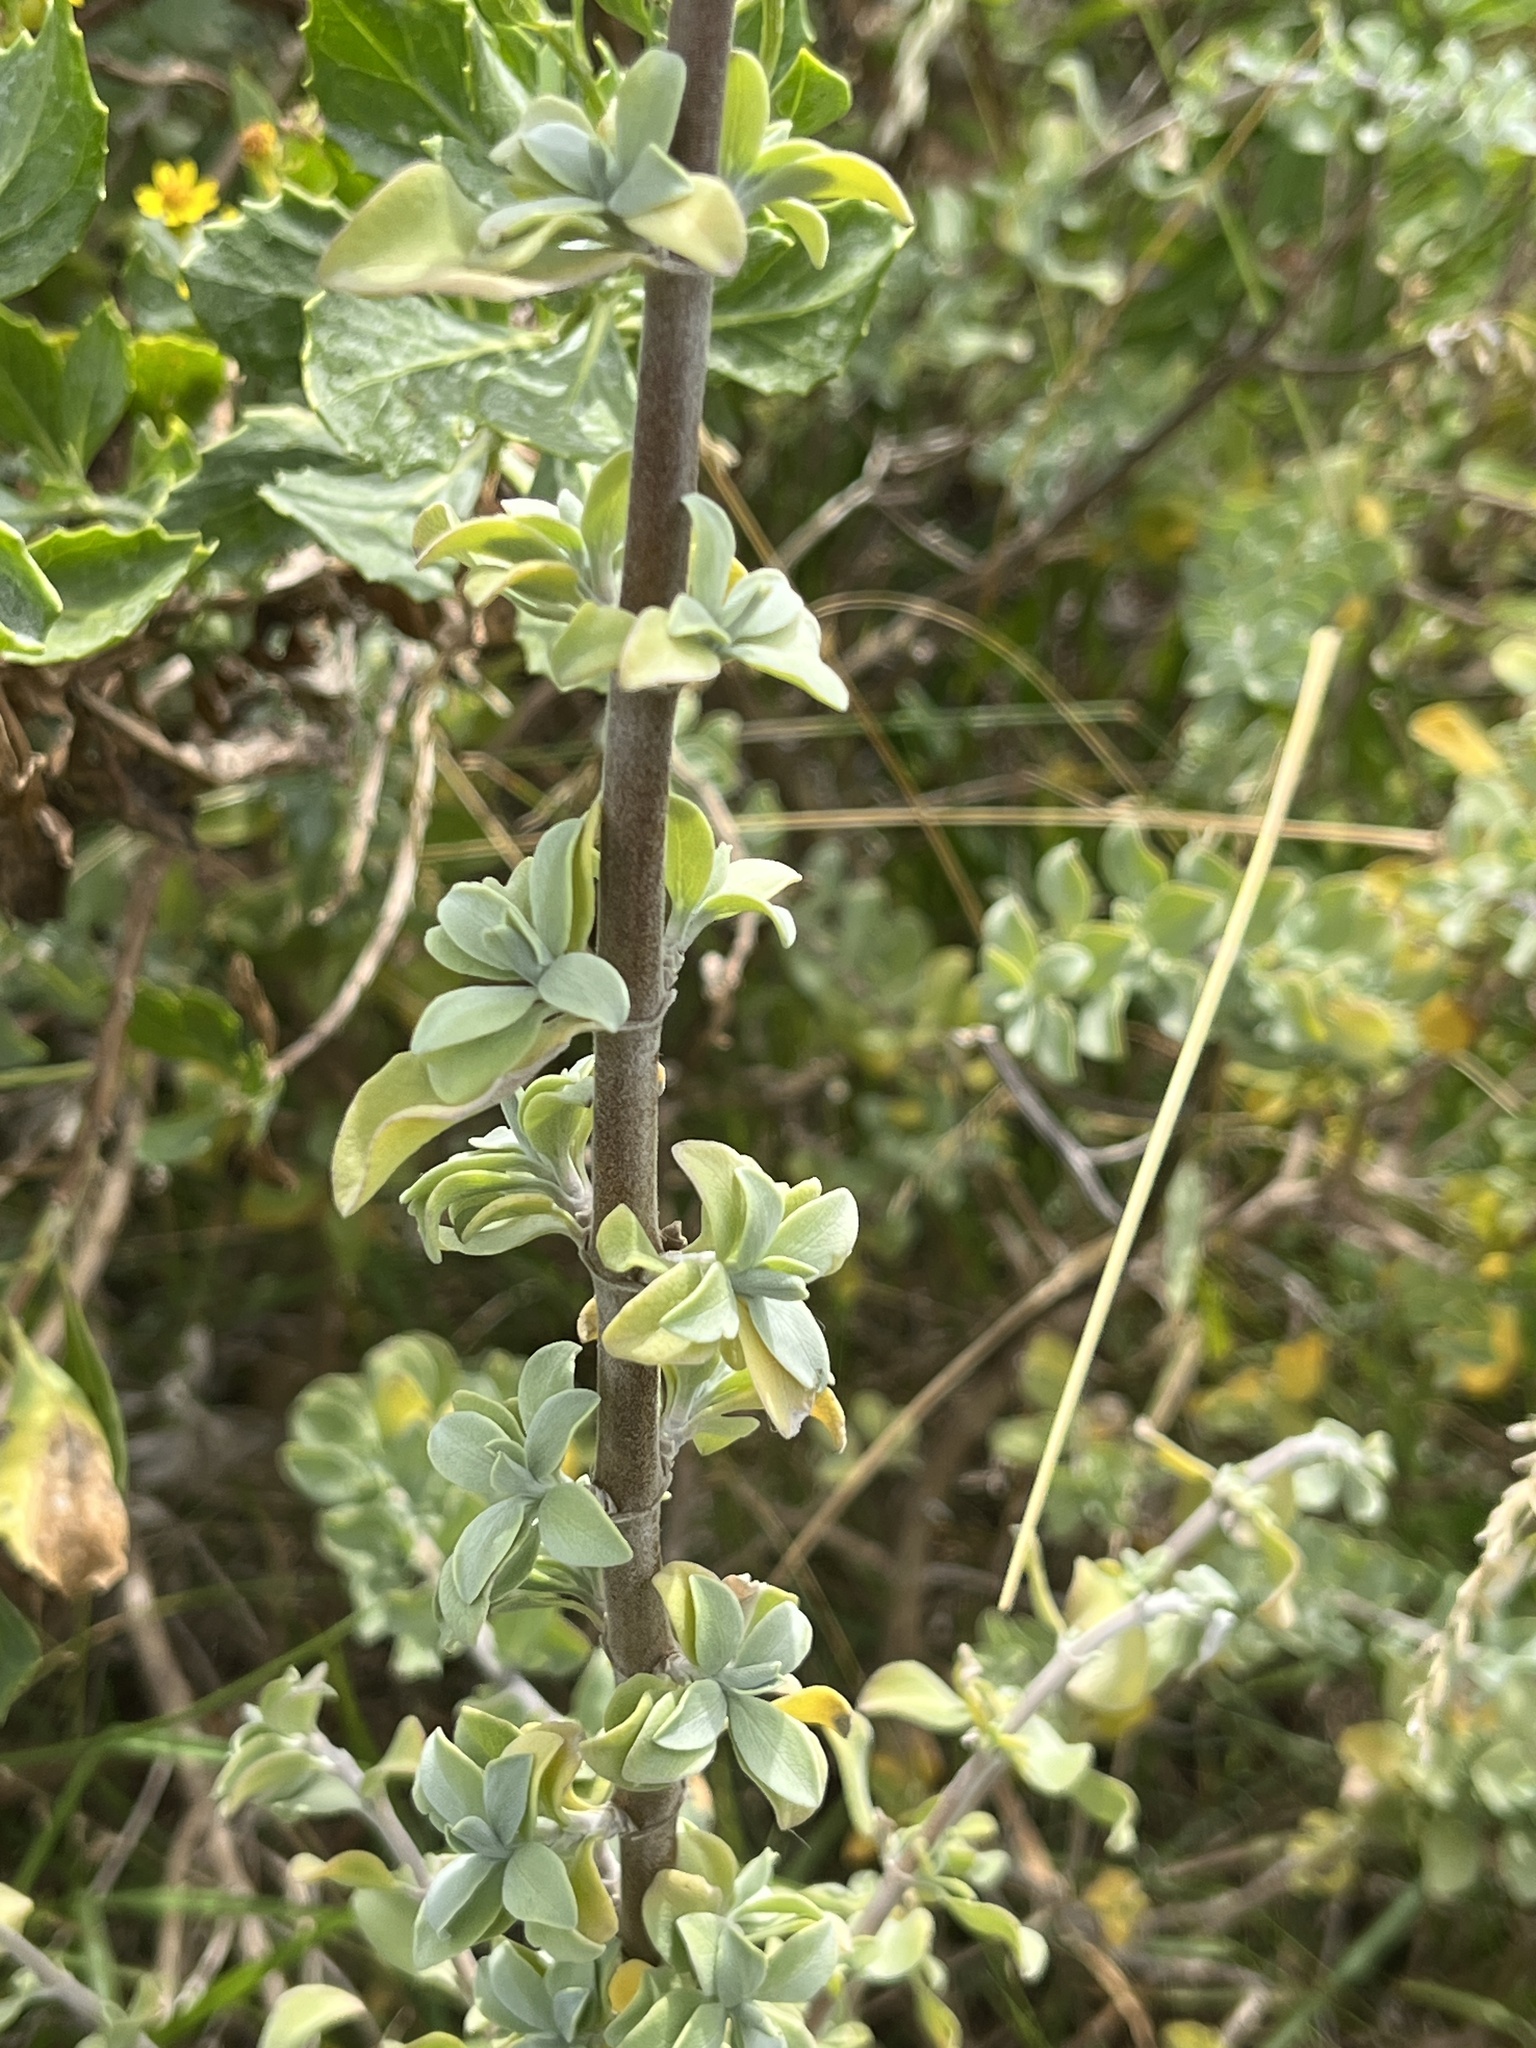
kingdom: Plantae
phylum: Tracheophyta
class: Magnoliopsida
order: Lamiales
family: Lamiaceae
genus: Salvia
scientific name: Salvia aurea
